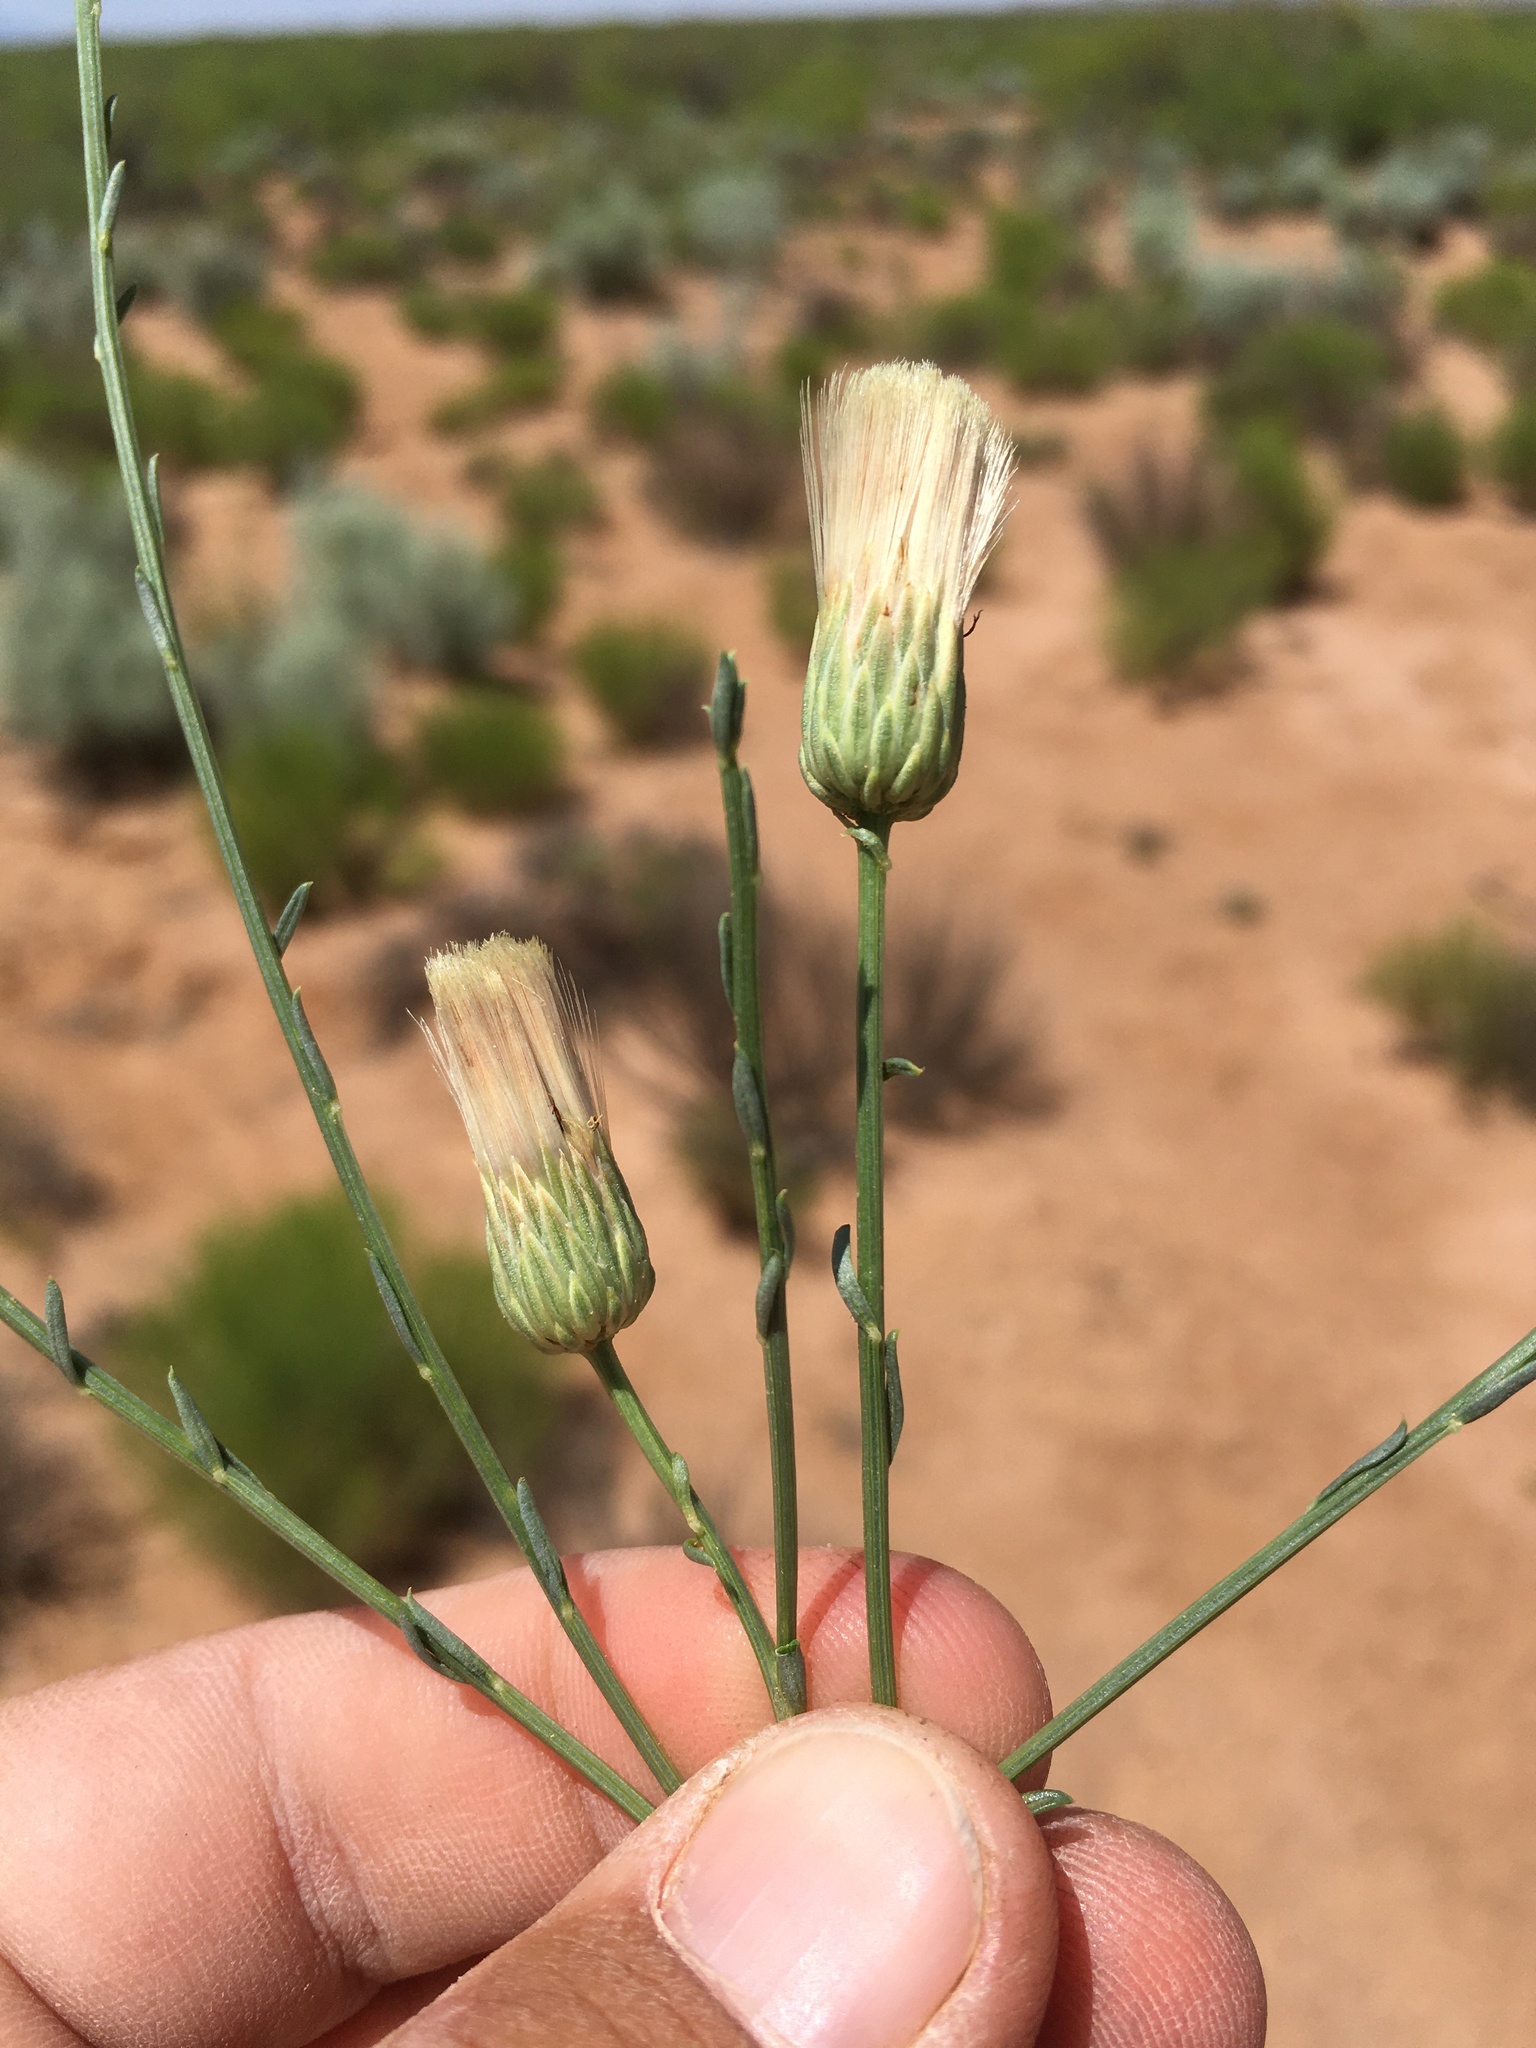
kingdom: Plantae
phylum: Tracheophyta
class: Magnoliopsida
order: Asterales
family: Asteraceae
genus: Baccharis
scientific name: Baccharis wrightii
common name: Wright's baccharis
